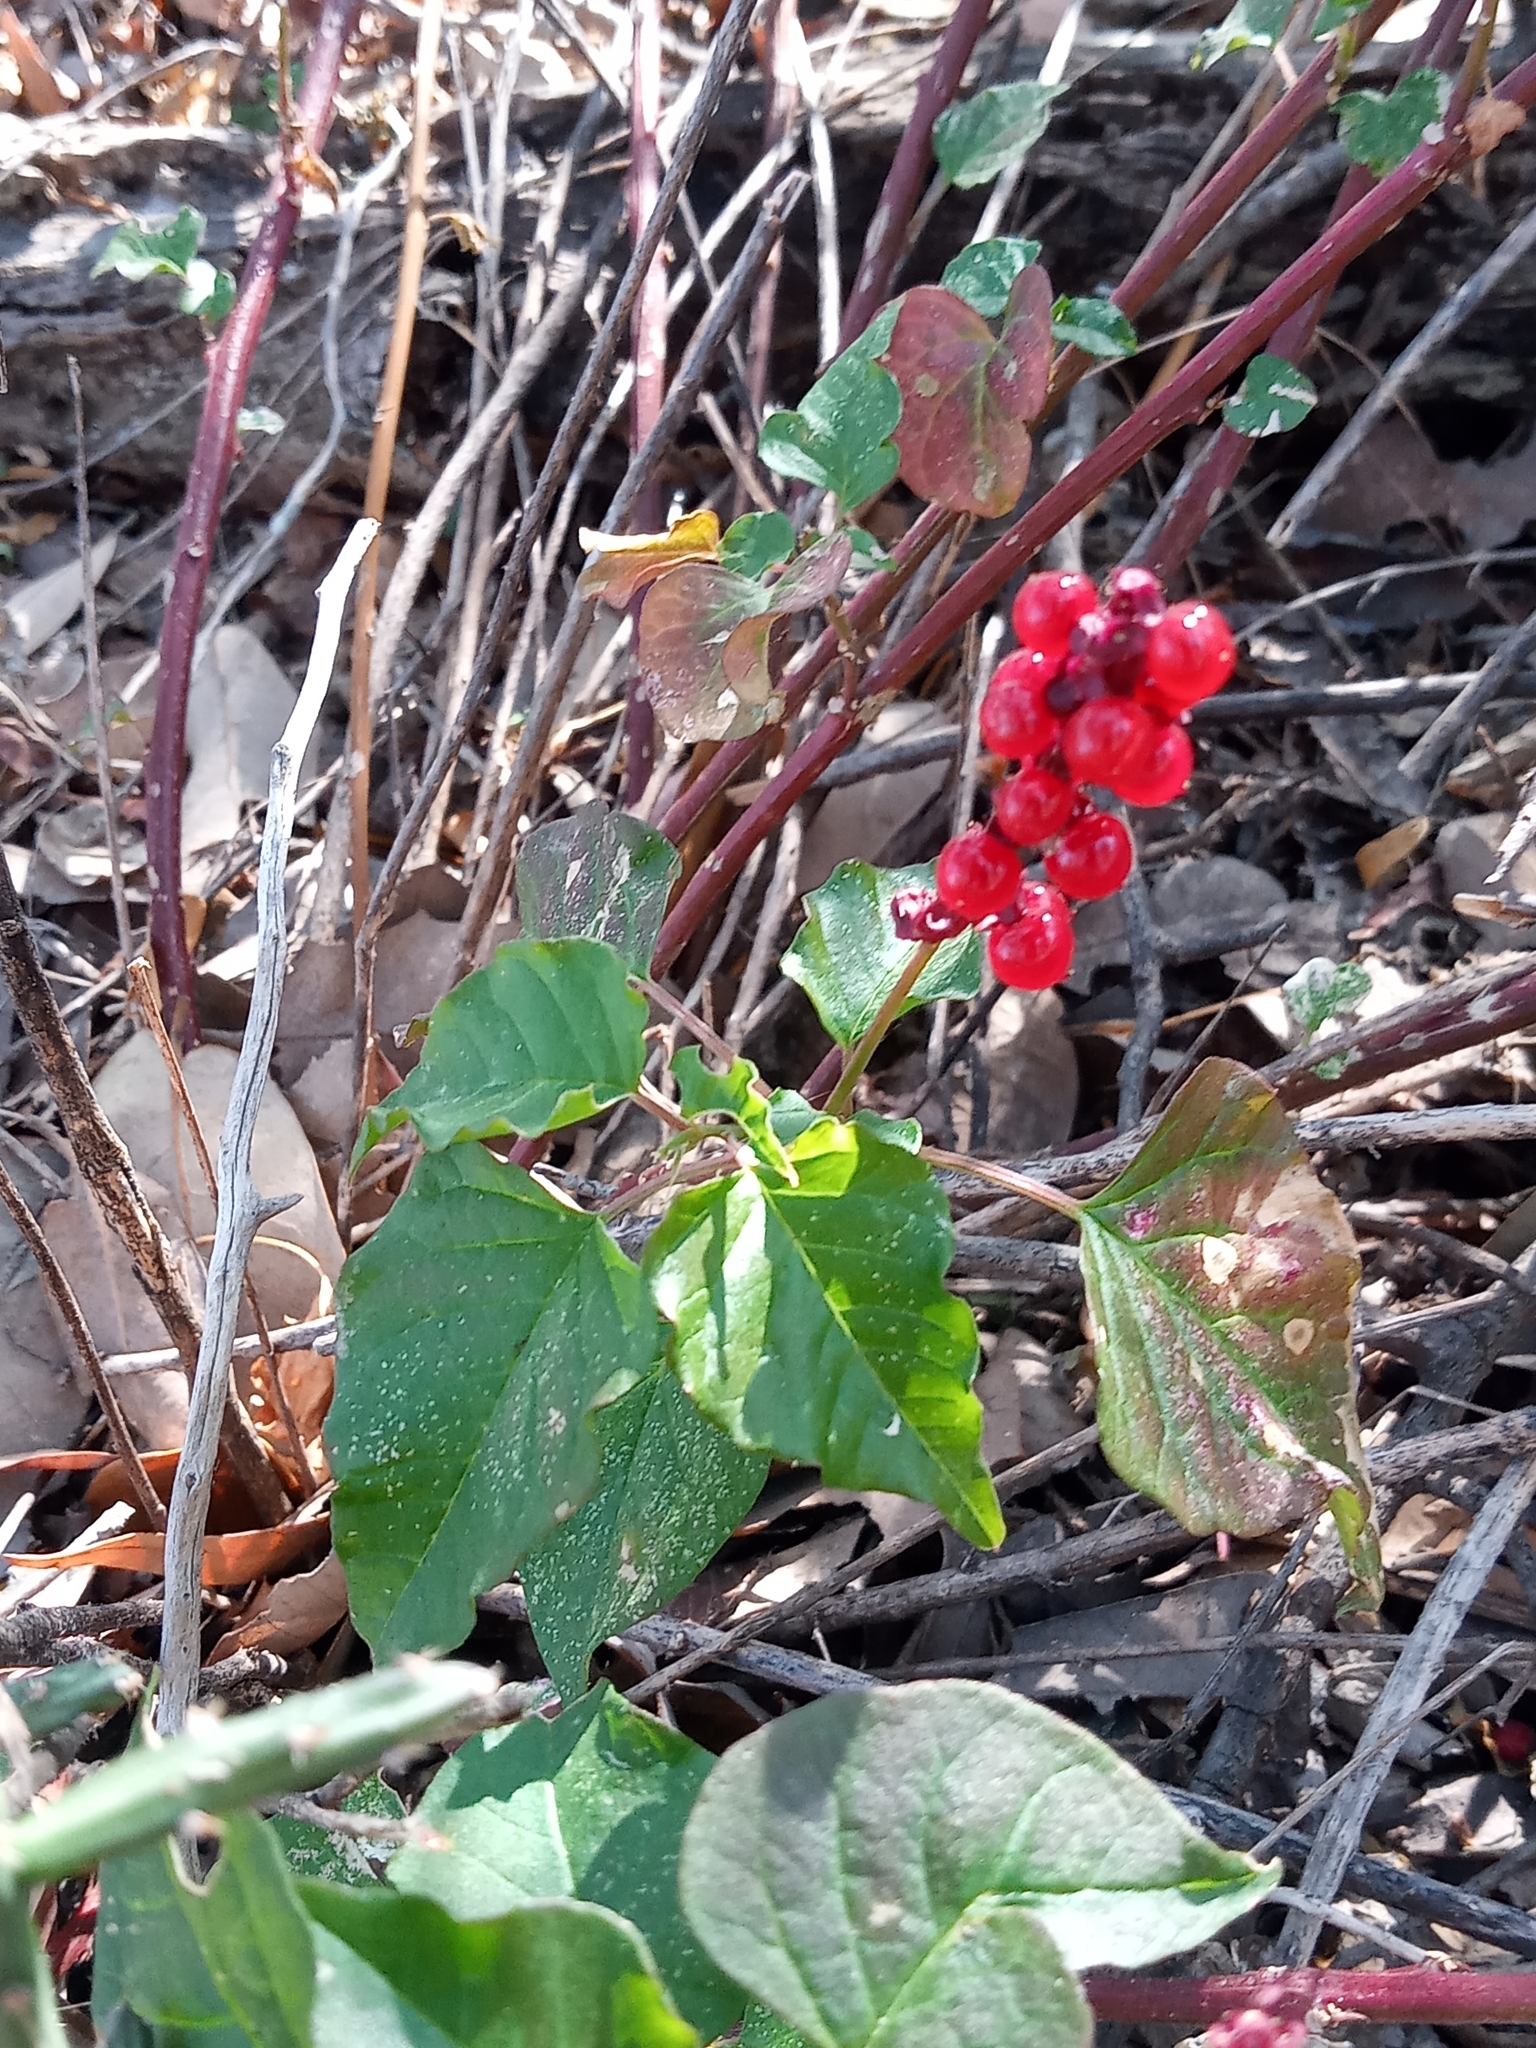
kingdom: Plantae
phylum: Tracheophyta
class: Magnoliopsida
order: Caryophyllales
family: Phytolaccaceae
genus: Rivina
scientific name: Rivina humilis
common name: Rougeplant
